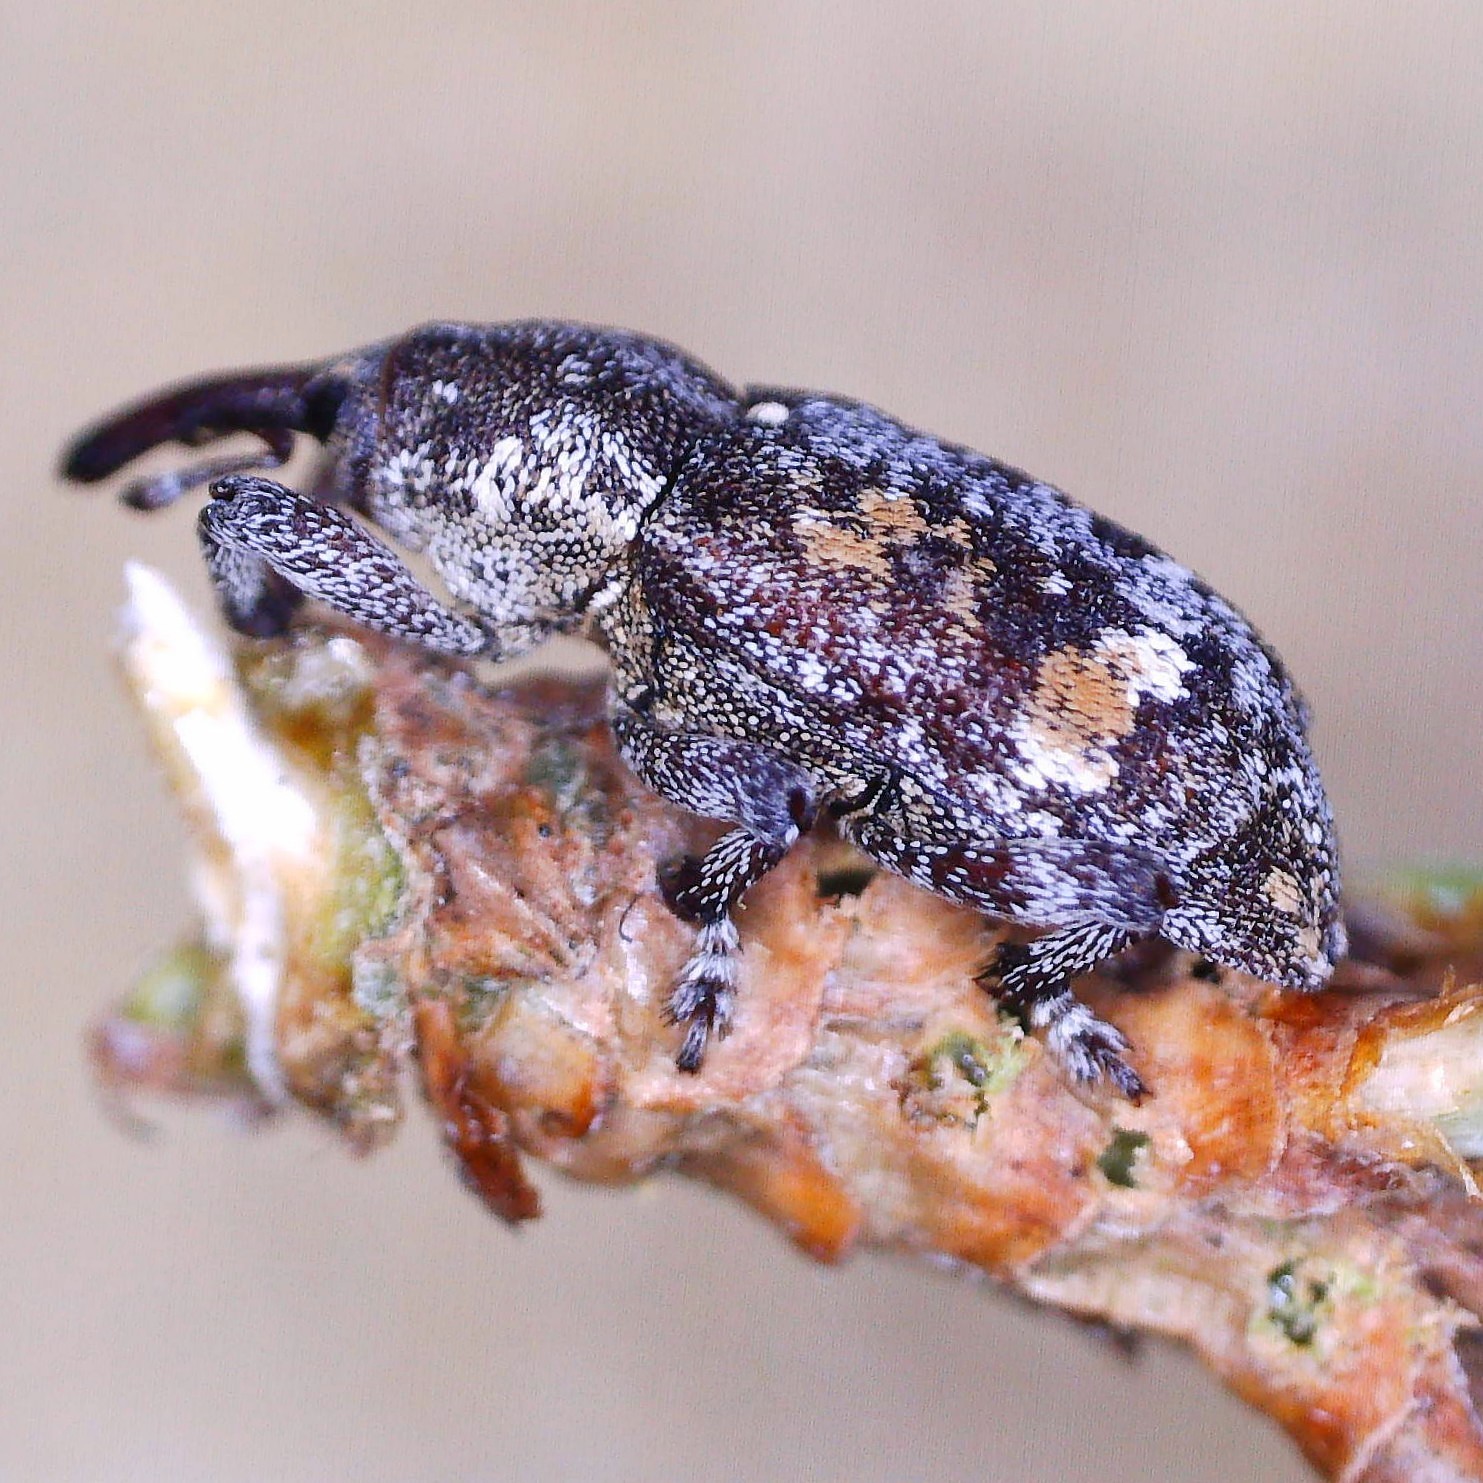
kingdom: Animalia
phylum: Arthropoda
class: Insecta
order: Coleoptera
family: Curculionidae
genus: Pissodes
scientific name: Pissodes castaneus
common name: Banded pine weevil
